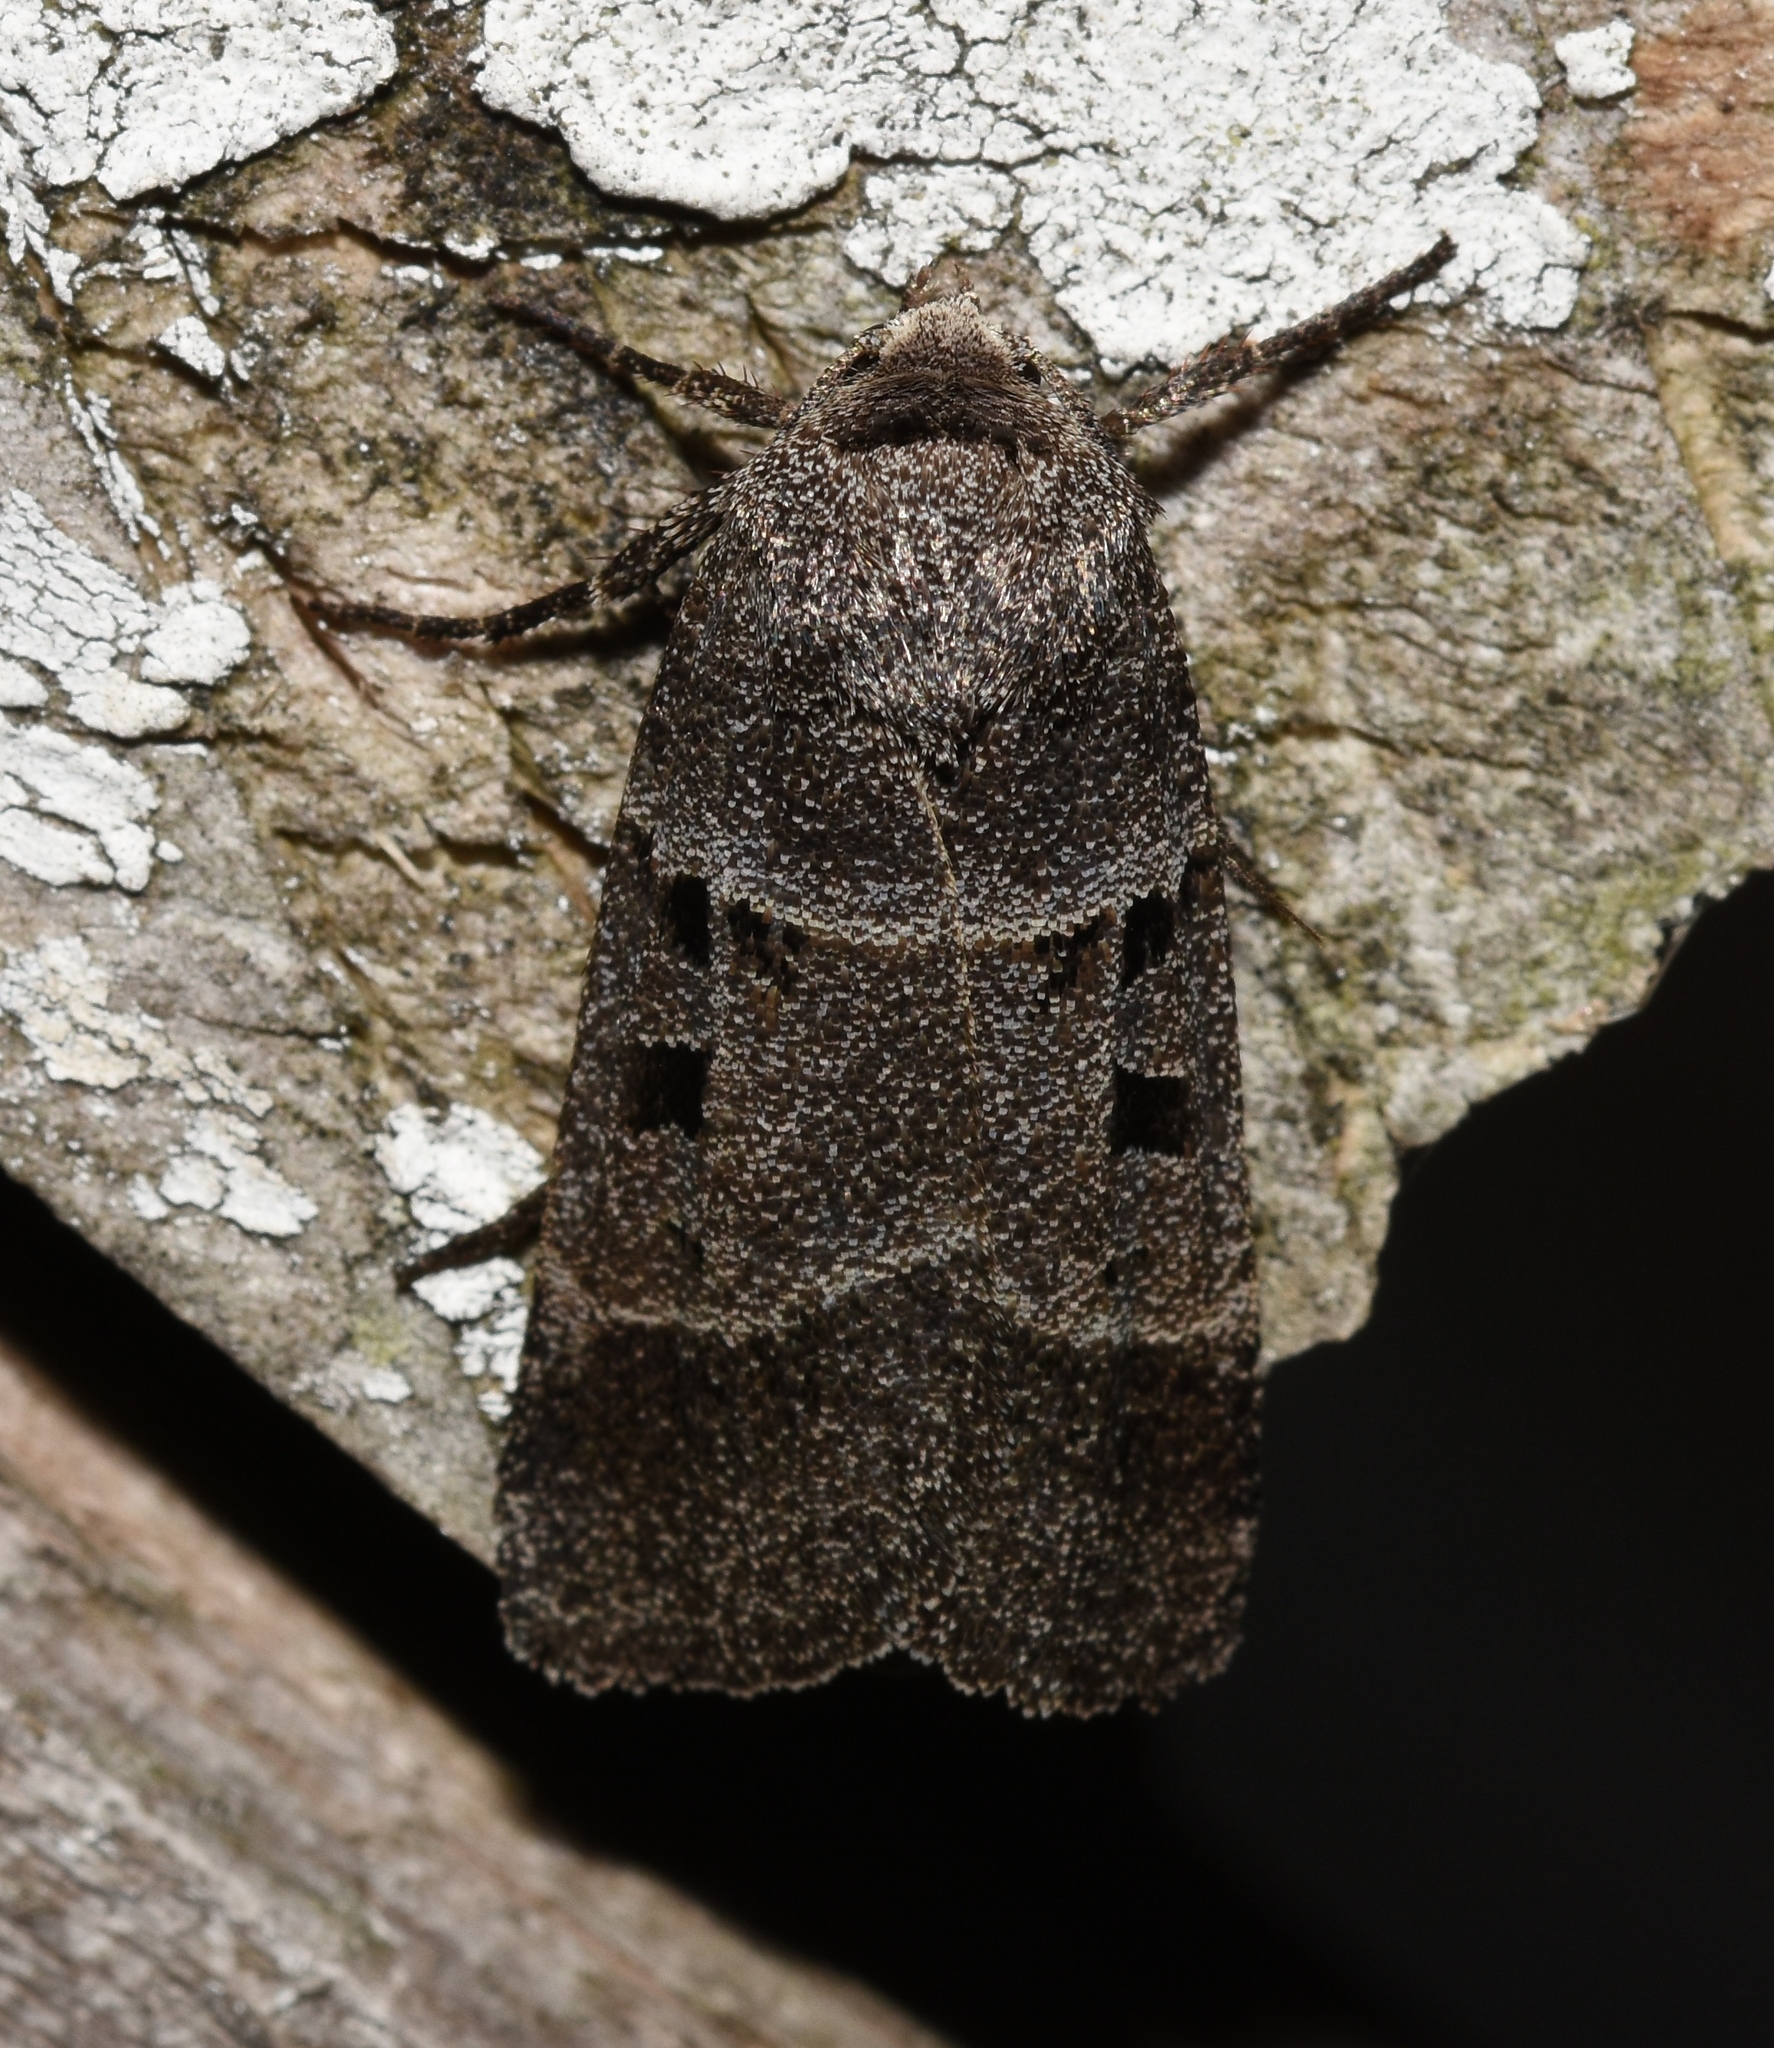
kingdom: Animalia
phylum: Arthropoda
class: Insecta
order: Lepidoptera
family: Noctuidae
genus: Agnorisma
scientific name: Agnorisma bollii
